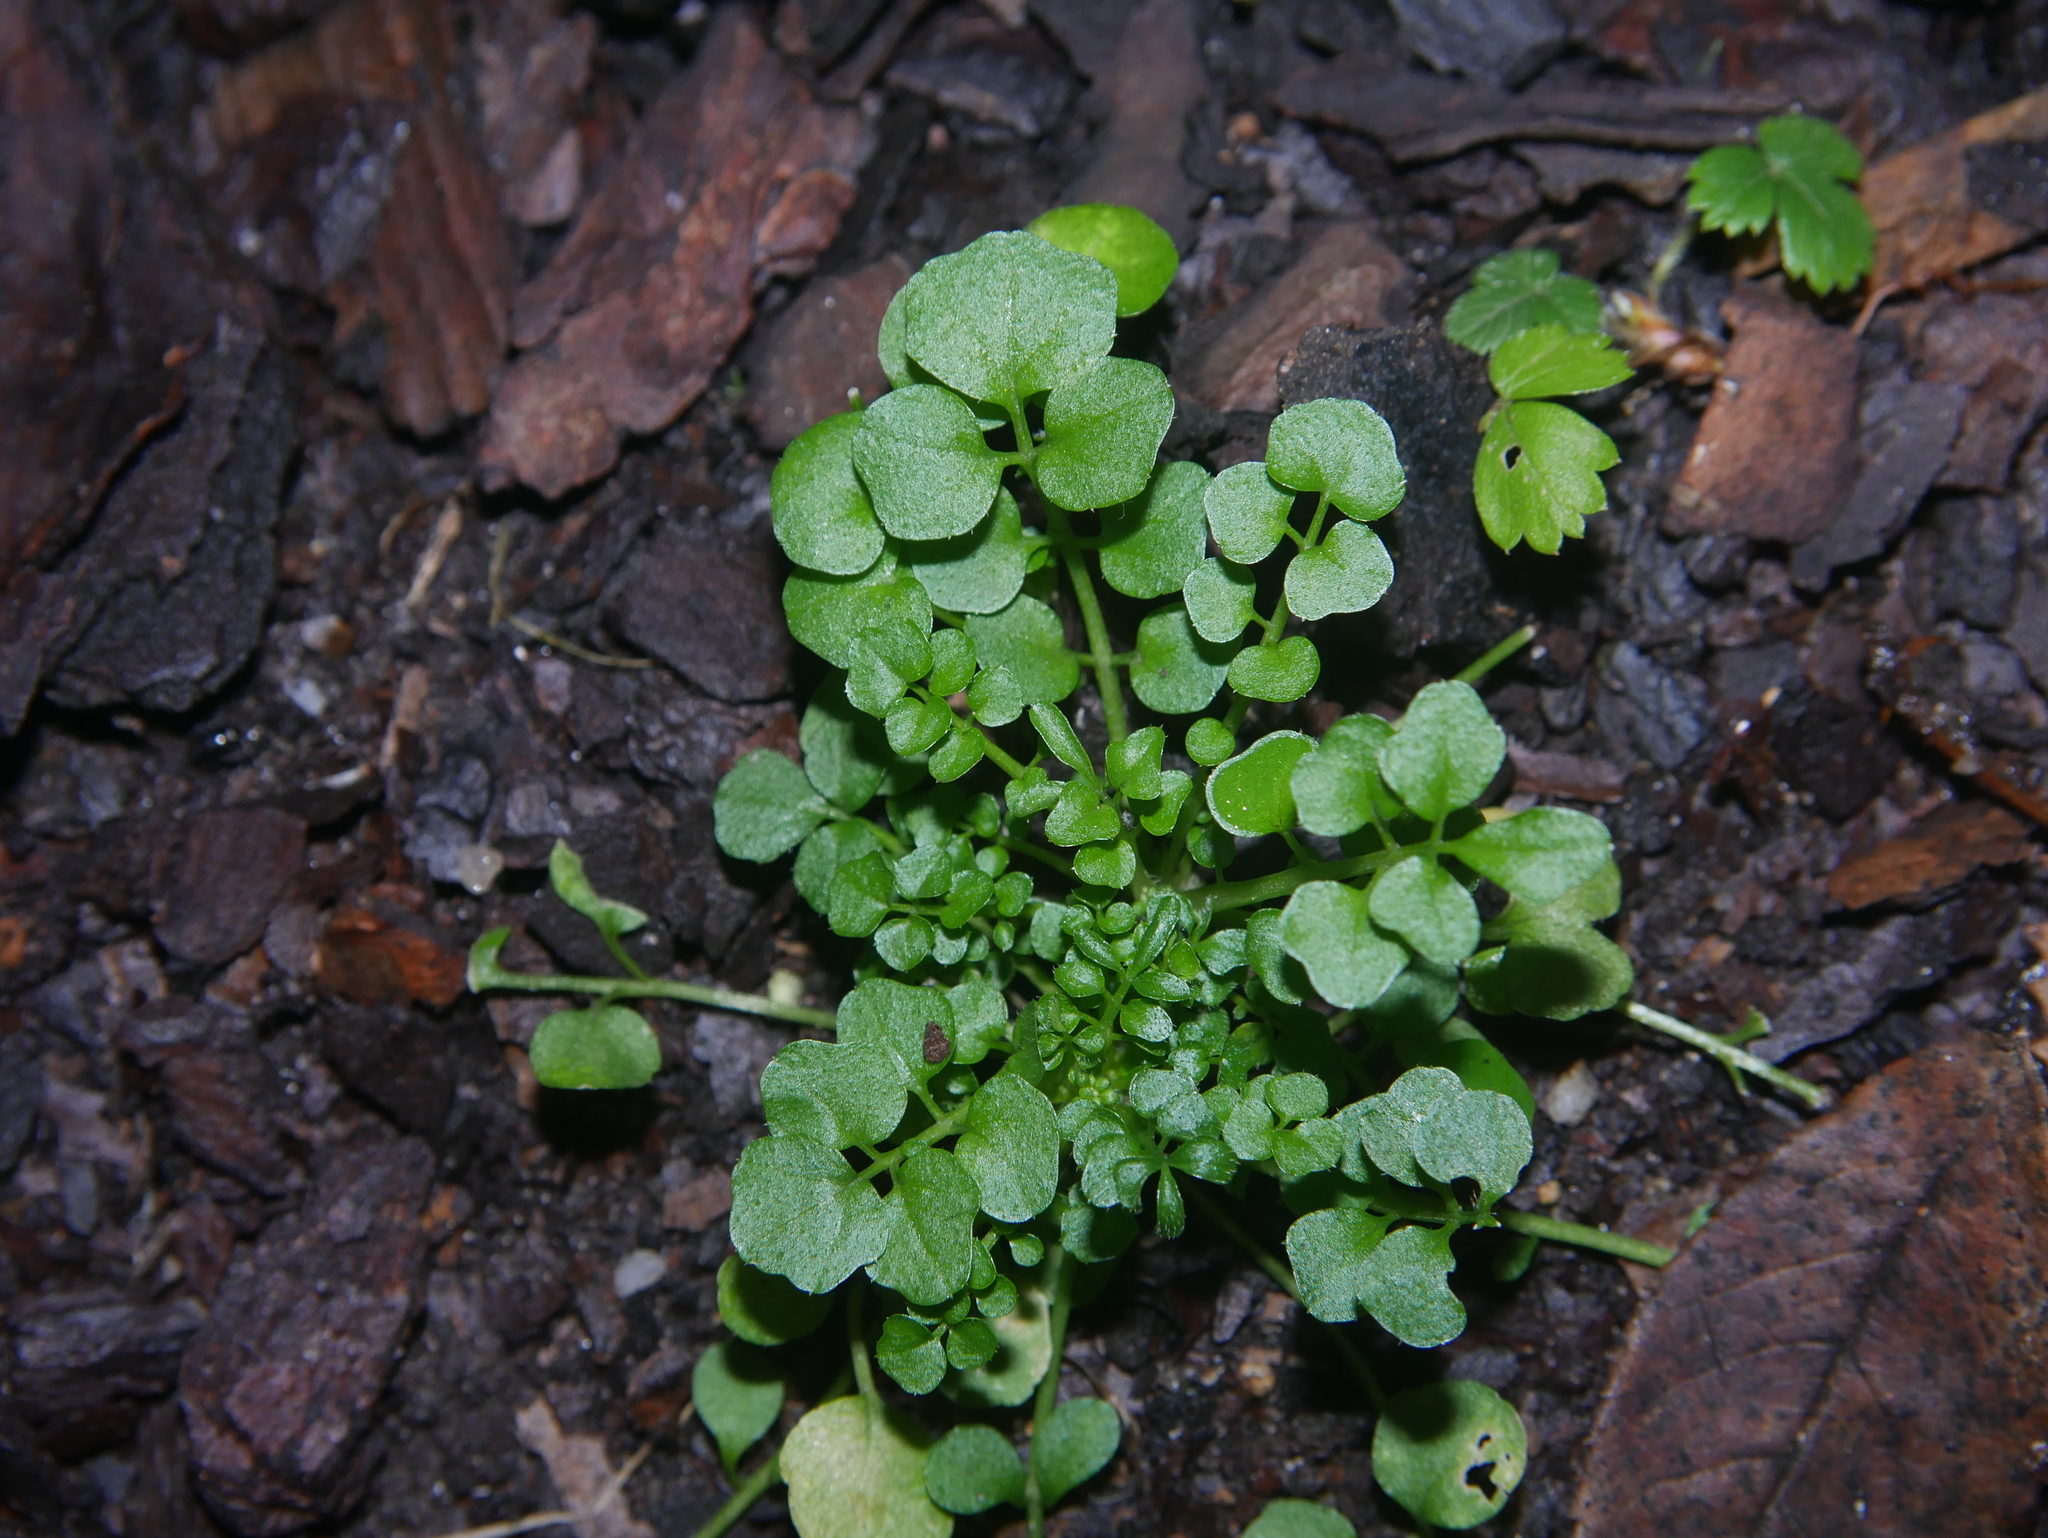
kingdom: Plantae
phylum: Tracheophyta
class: Magnoliopsida
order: Brassicales
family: Brassicaceae
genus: Cardamine
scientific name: Cardamine hirsuta
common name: Hairy bittercress
